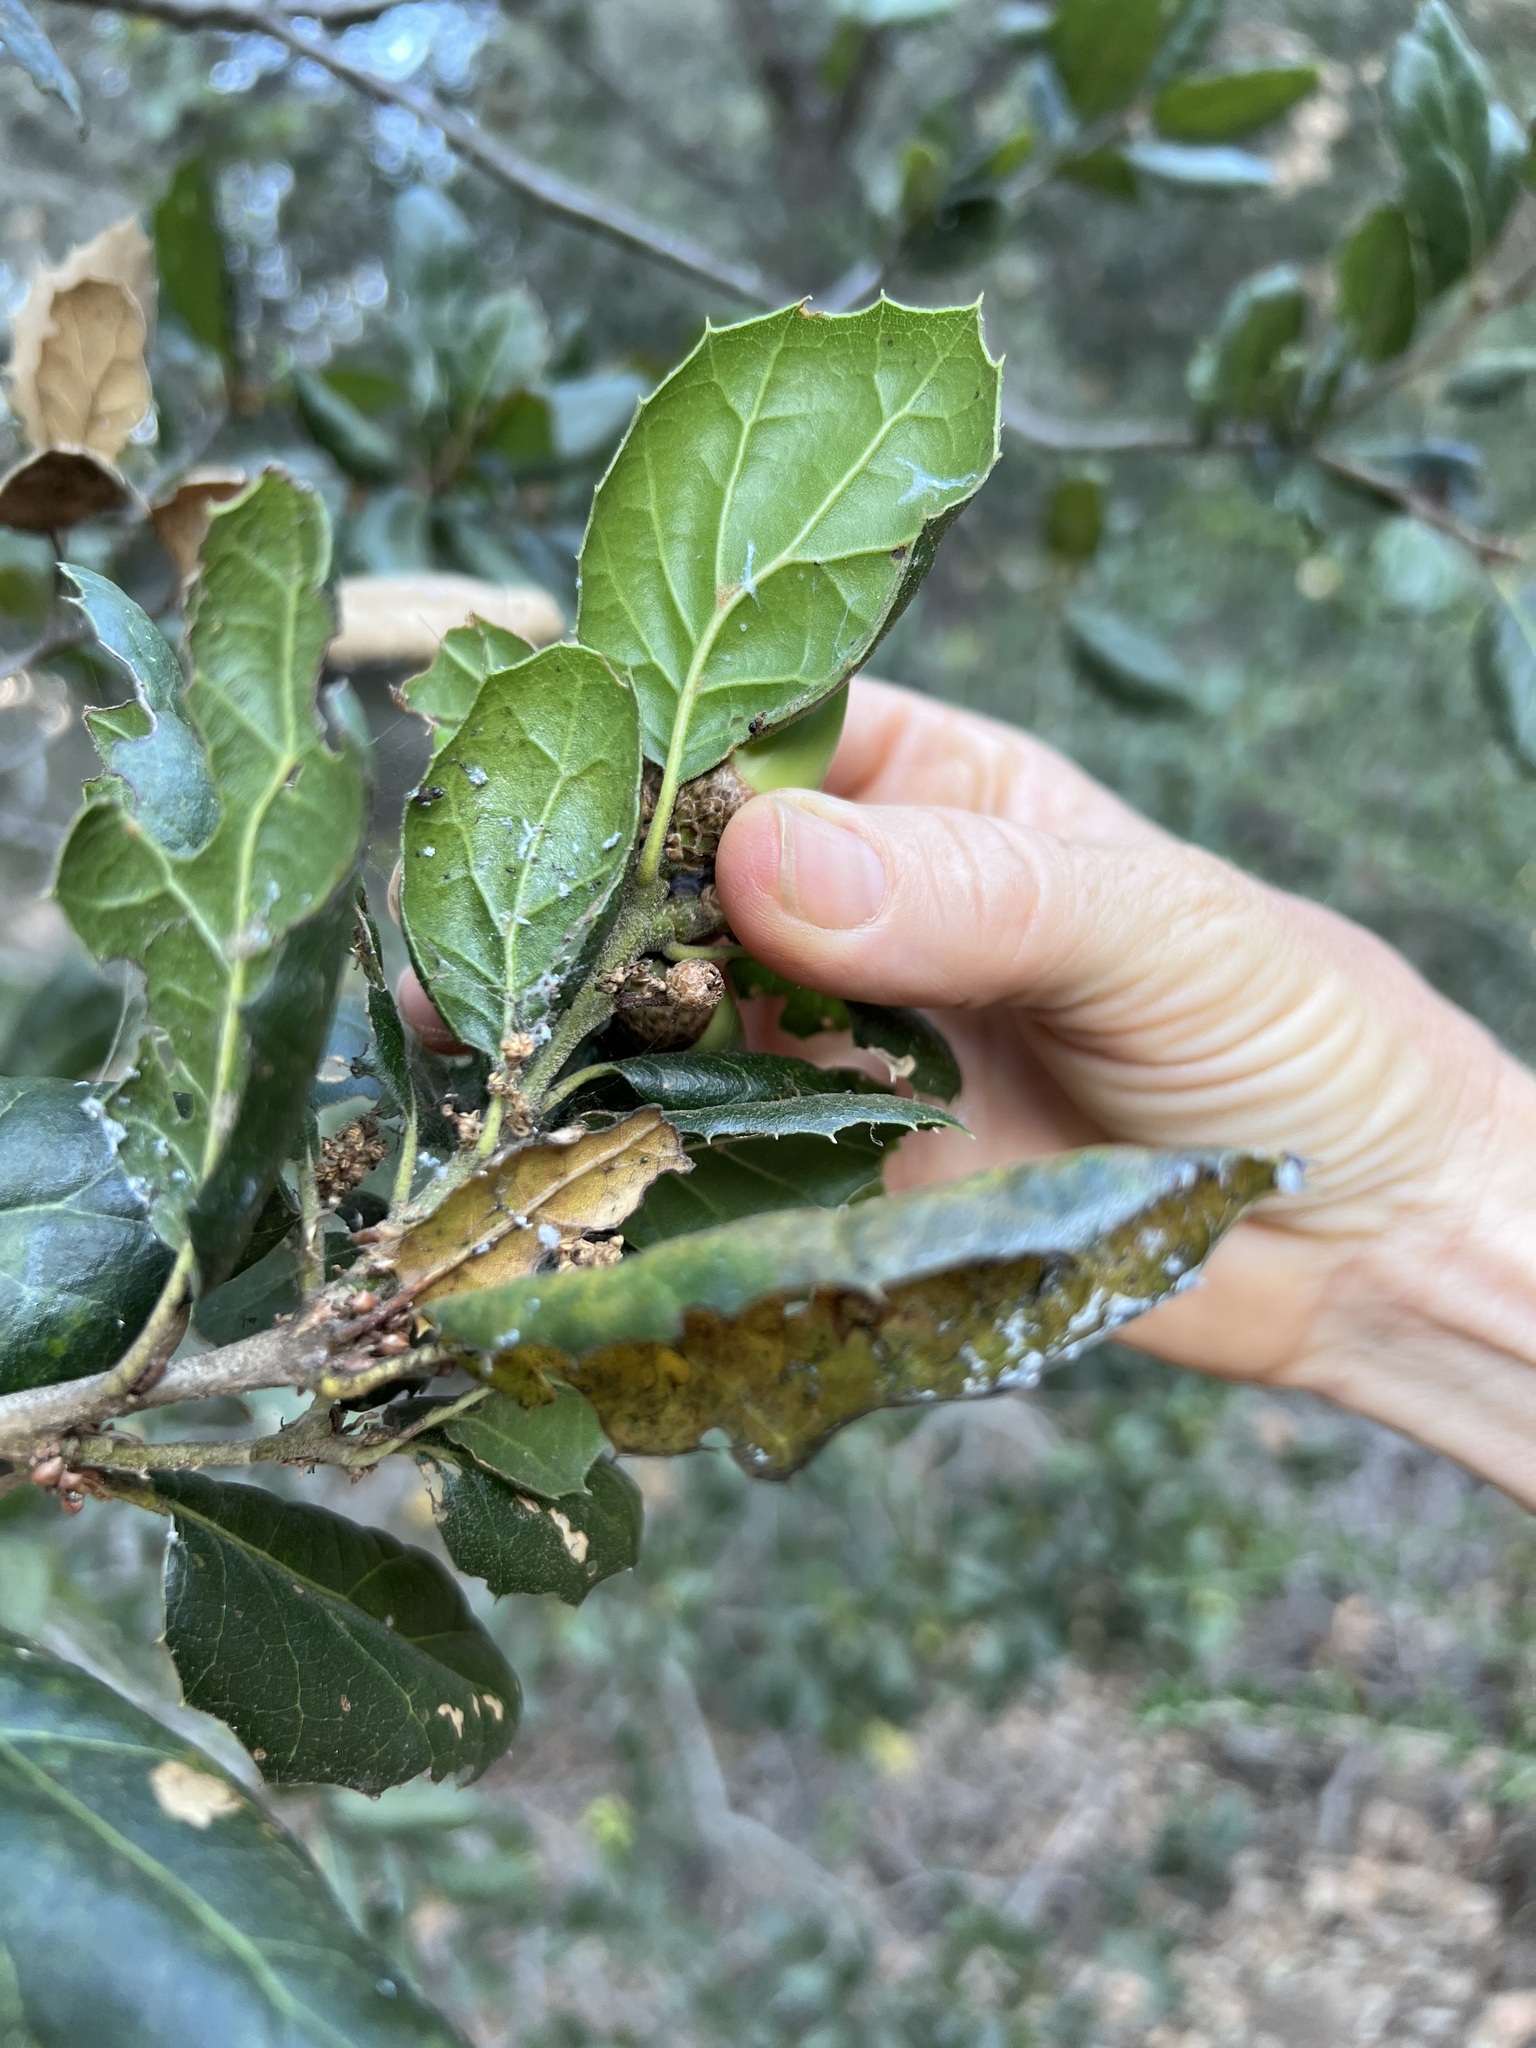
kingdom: Plantae
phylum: Tracheophyta
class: Magnoliopsida
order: Fagales
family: Fagaceae
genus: Quercus
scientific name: Quercus agrifolia
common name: California live oak
